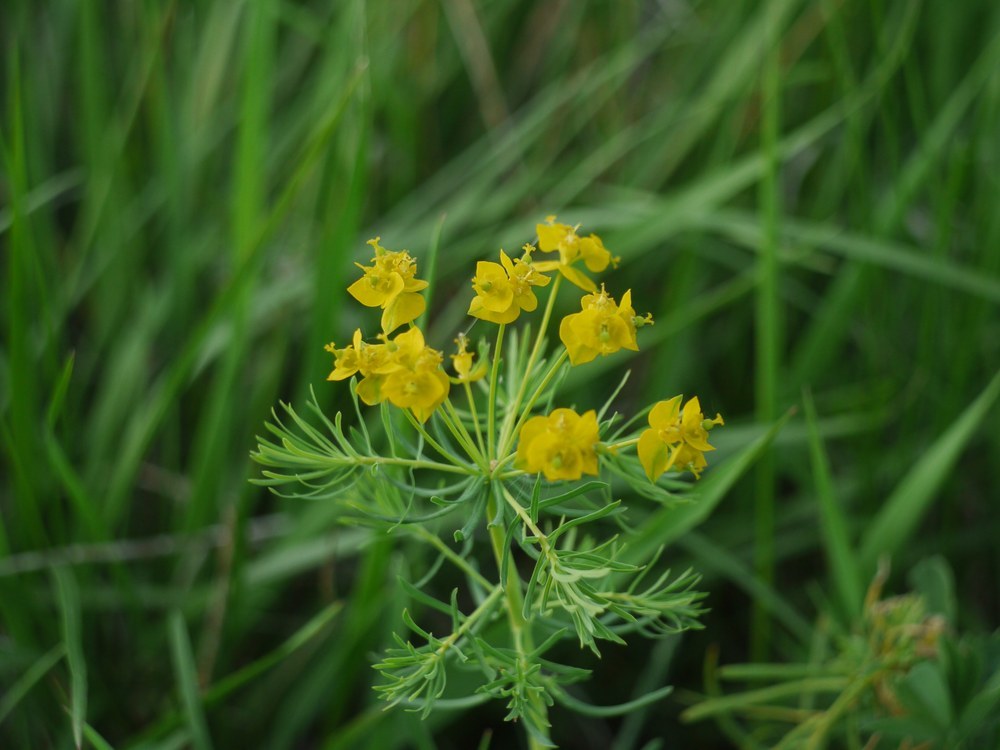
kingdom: Plantae
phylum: Tracheophyta
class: Magnoliopsida
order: Malpighiales
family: Euphorbiaceae
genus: Euphorbia
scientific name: Euphorbia cyparissias
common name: Cypress spurge
